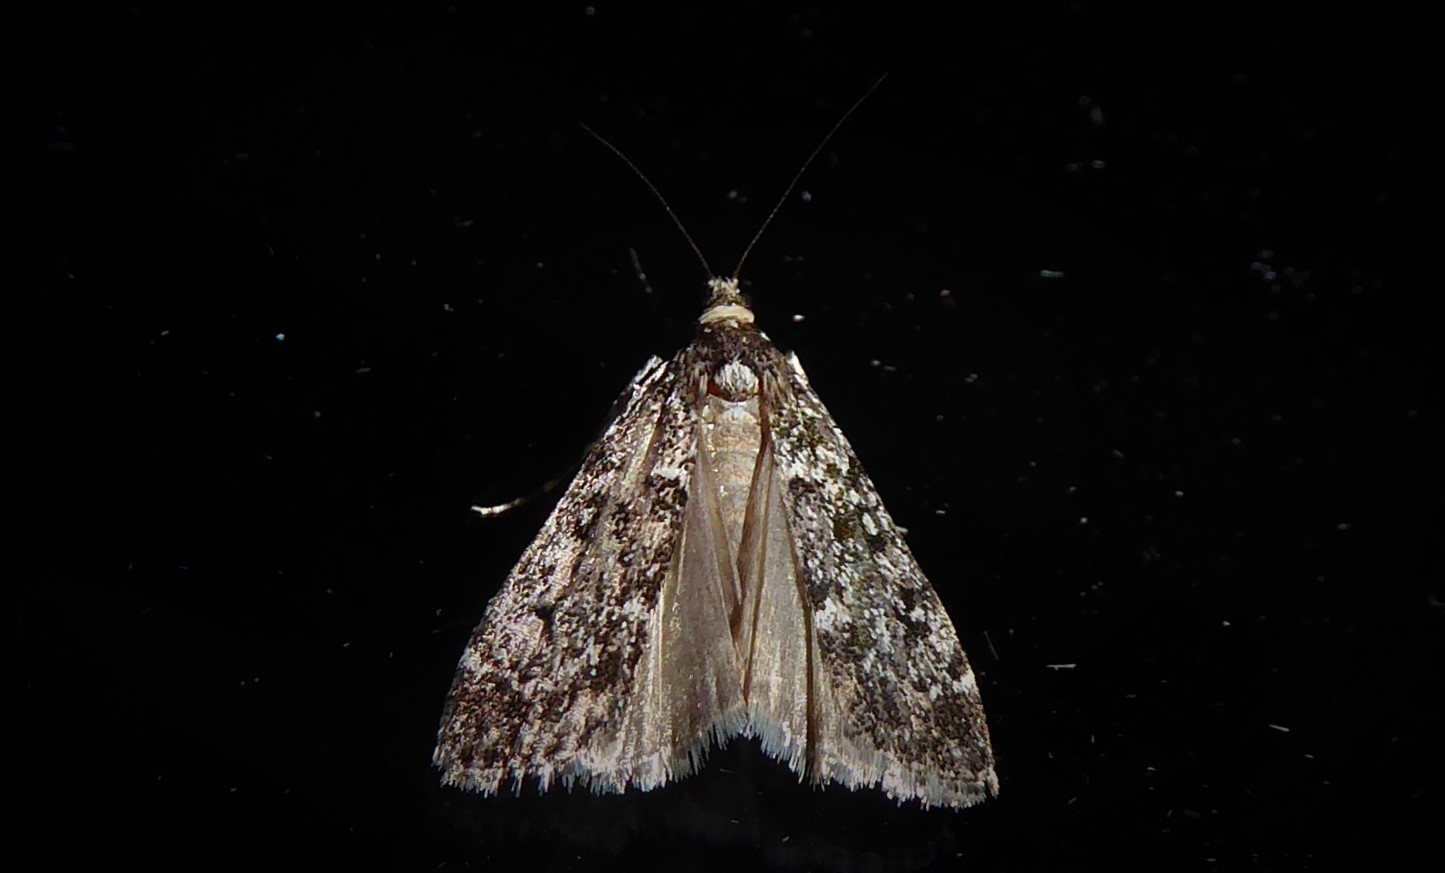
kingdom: Animalia
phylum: Arthropoda
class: Insecta
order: Lepidoptera
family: Crambidae
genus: Eudonia
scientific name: Eudonia philerga
